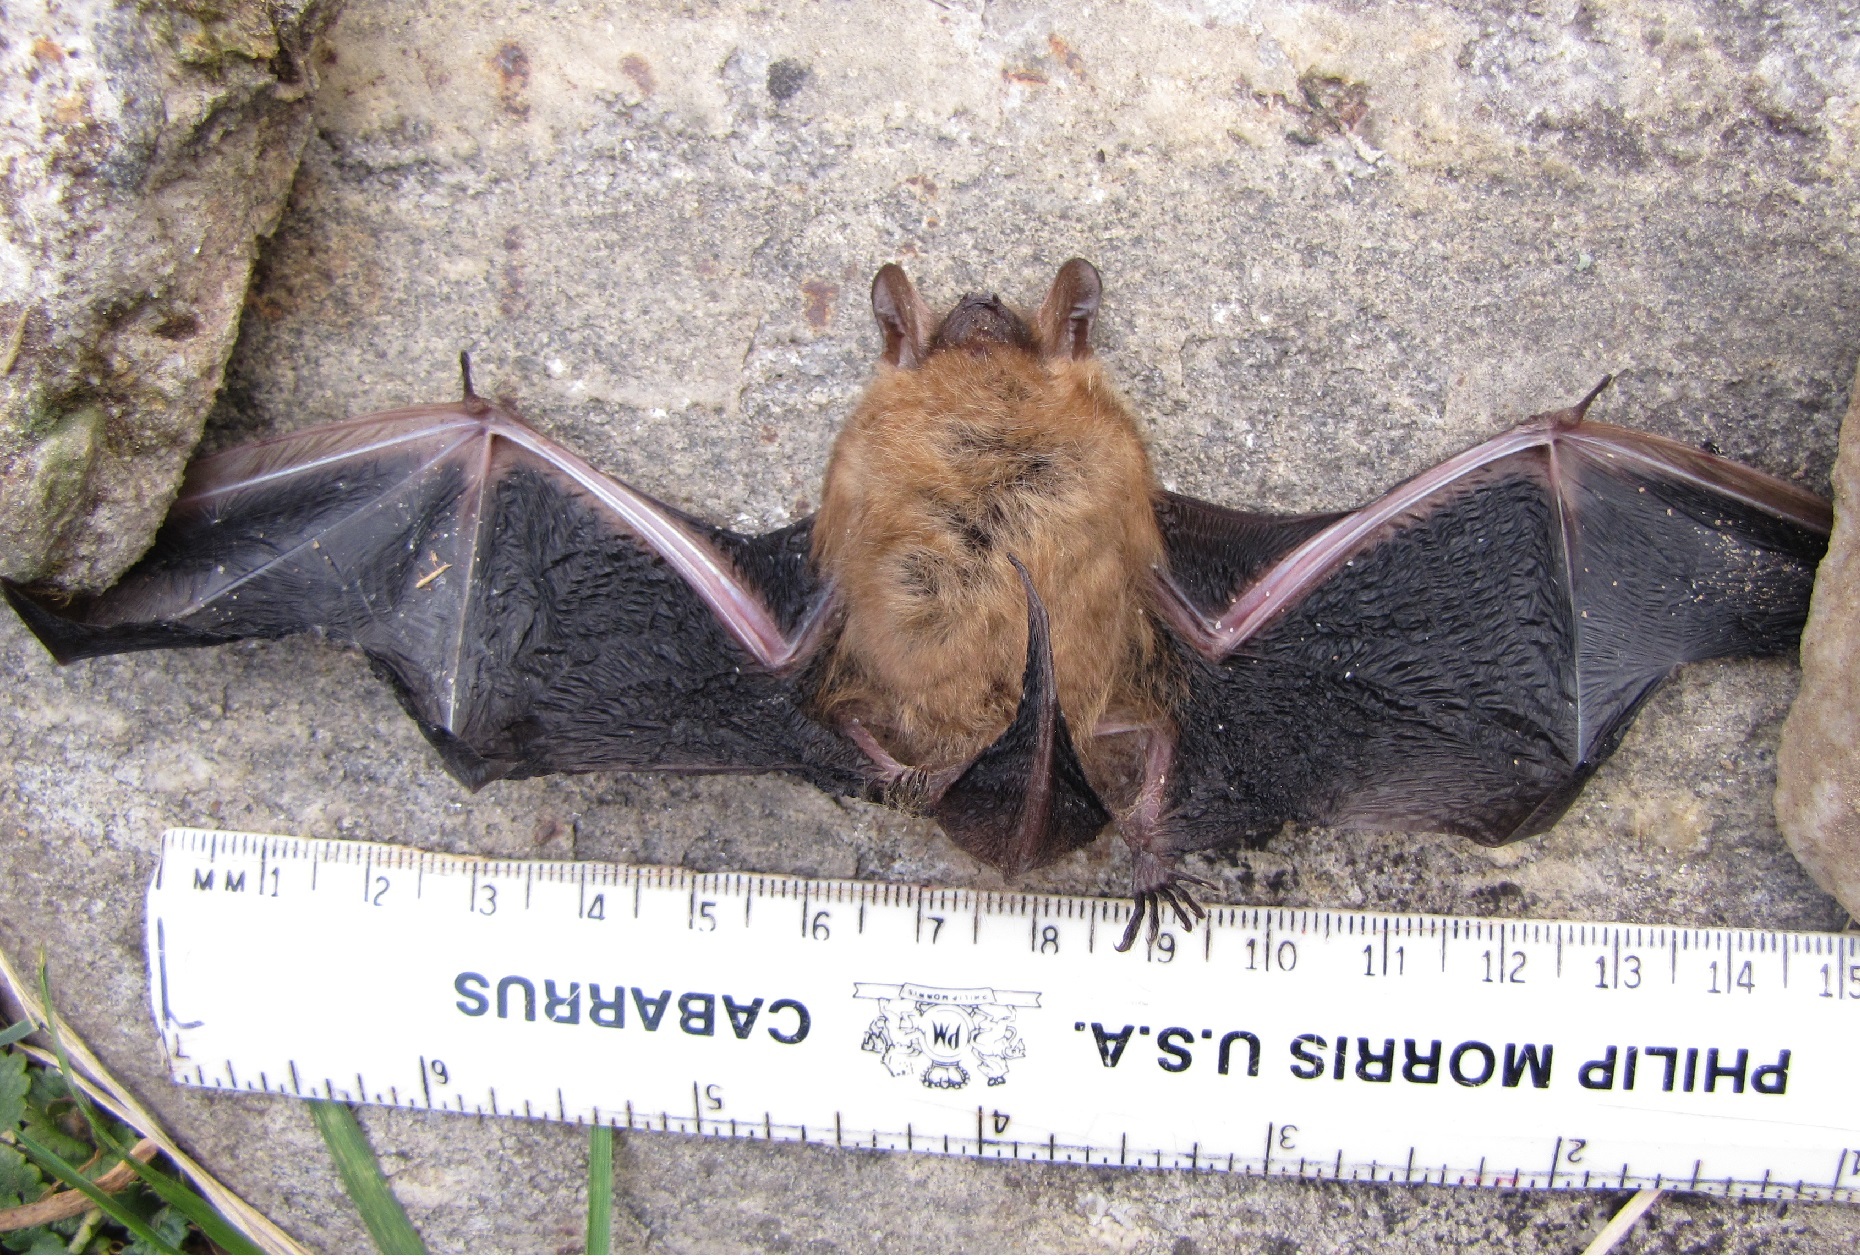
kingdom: Animalia
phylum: Chordata
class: Mammalia
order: Chiroptera
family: Vespertilionidae
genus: Perimyotis
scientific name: Perimyotis subflavus
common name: Eastern pipistrelle
